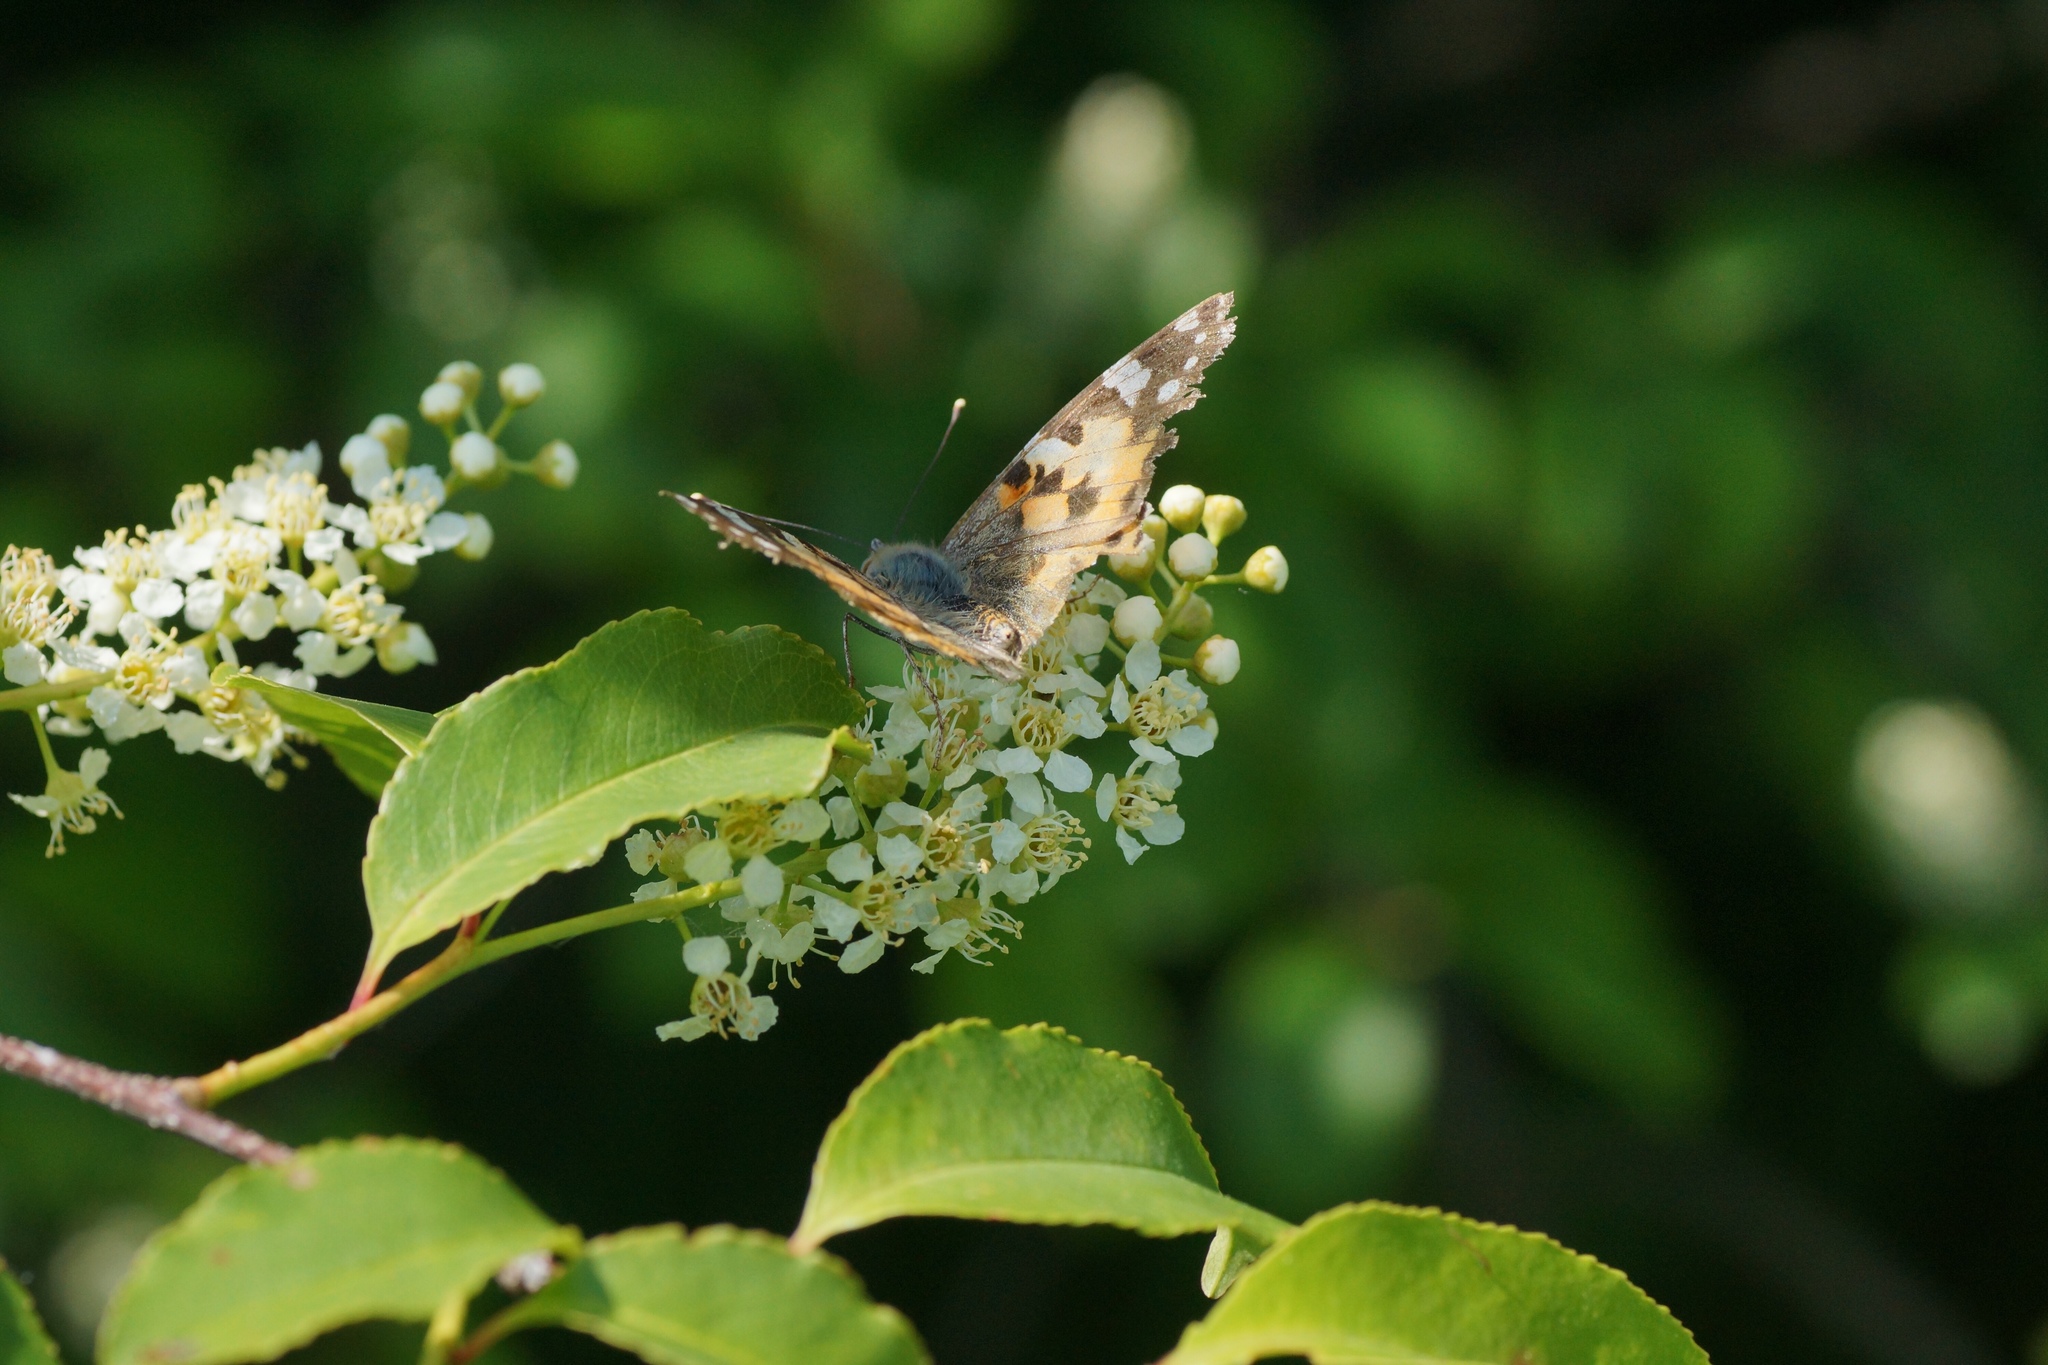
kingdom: Animalia
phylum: Arthropoda
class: Insecta
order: Lepidoptera
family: Nymphalidae
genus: Vanessa
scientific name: Vanessa cardui
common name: Painted lady
